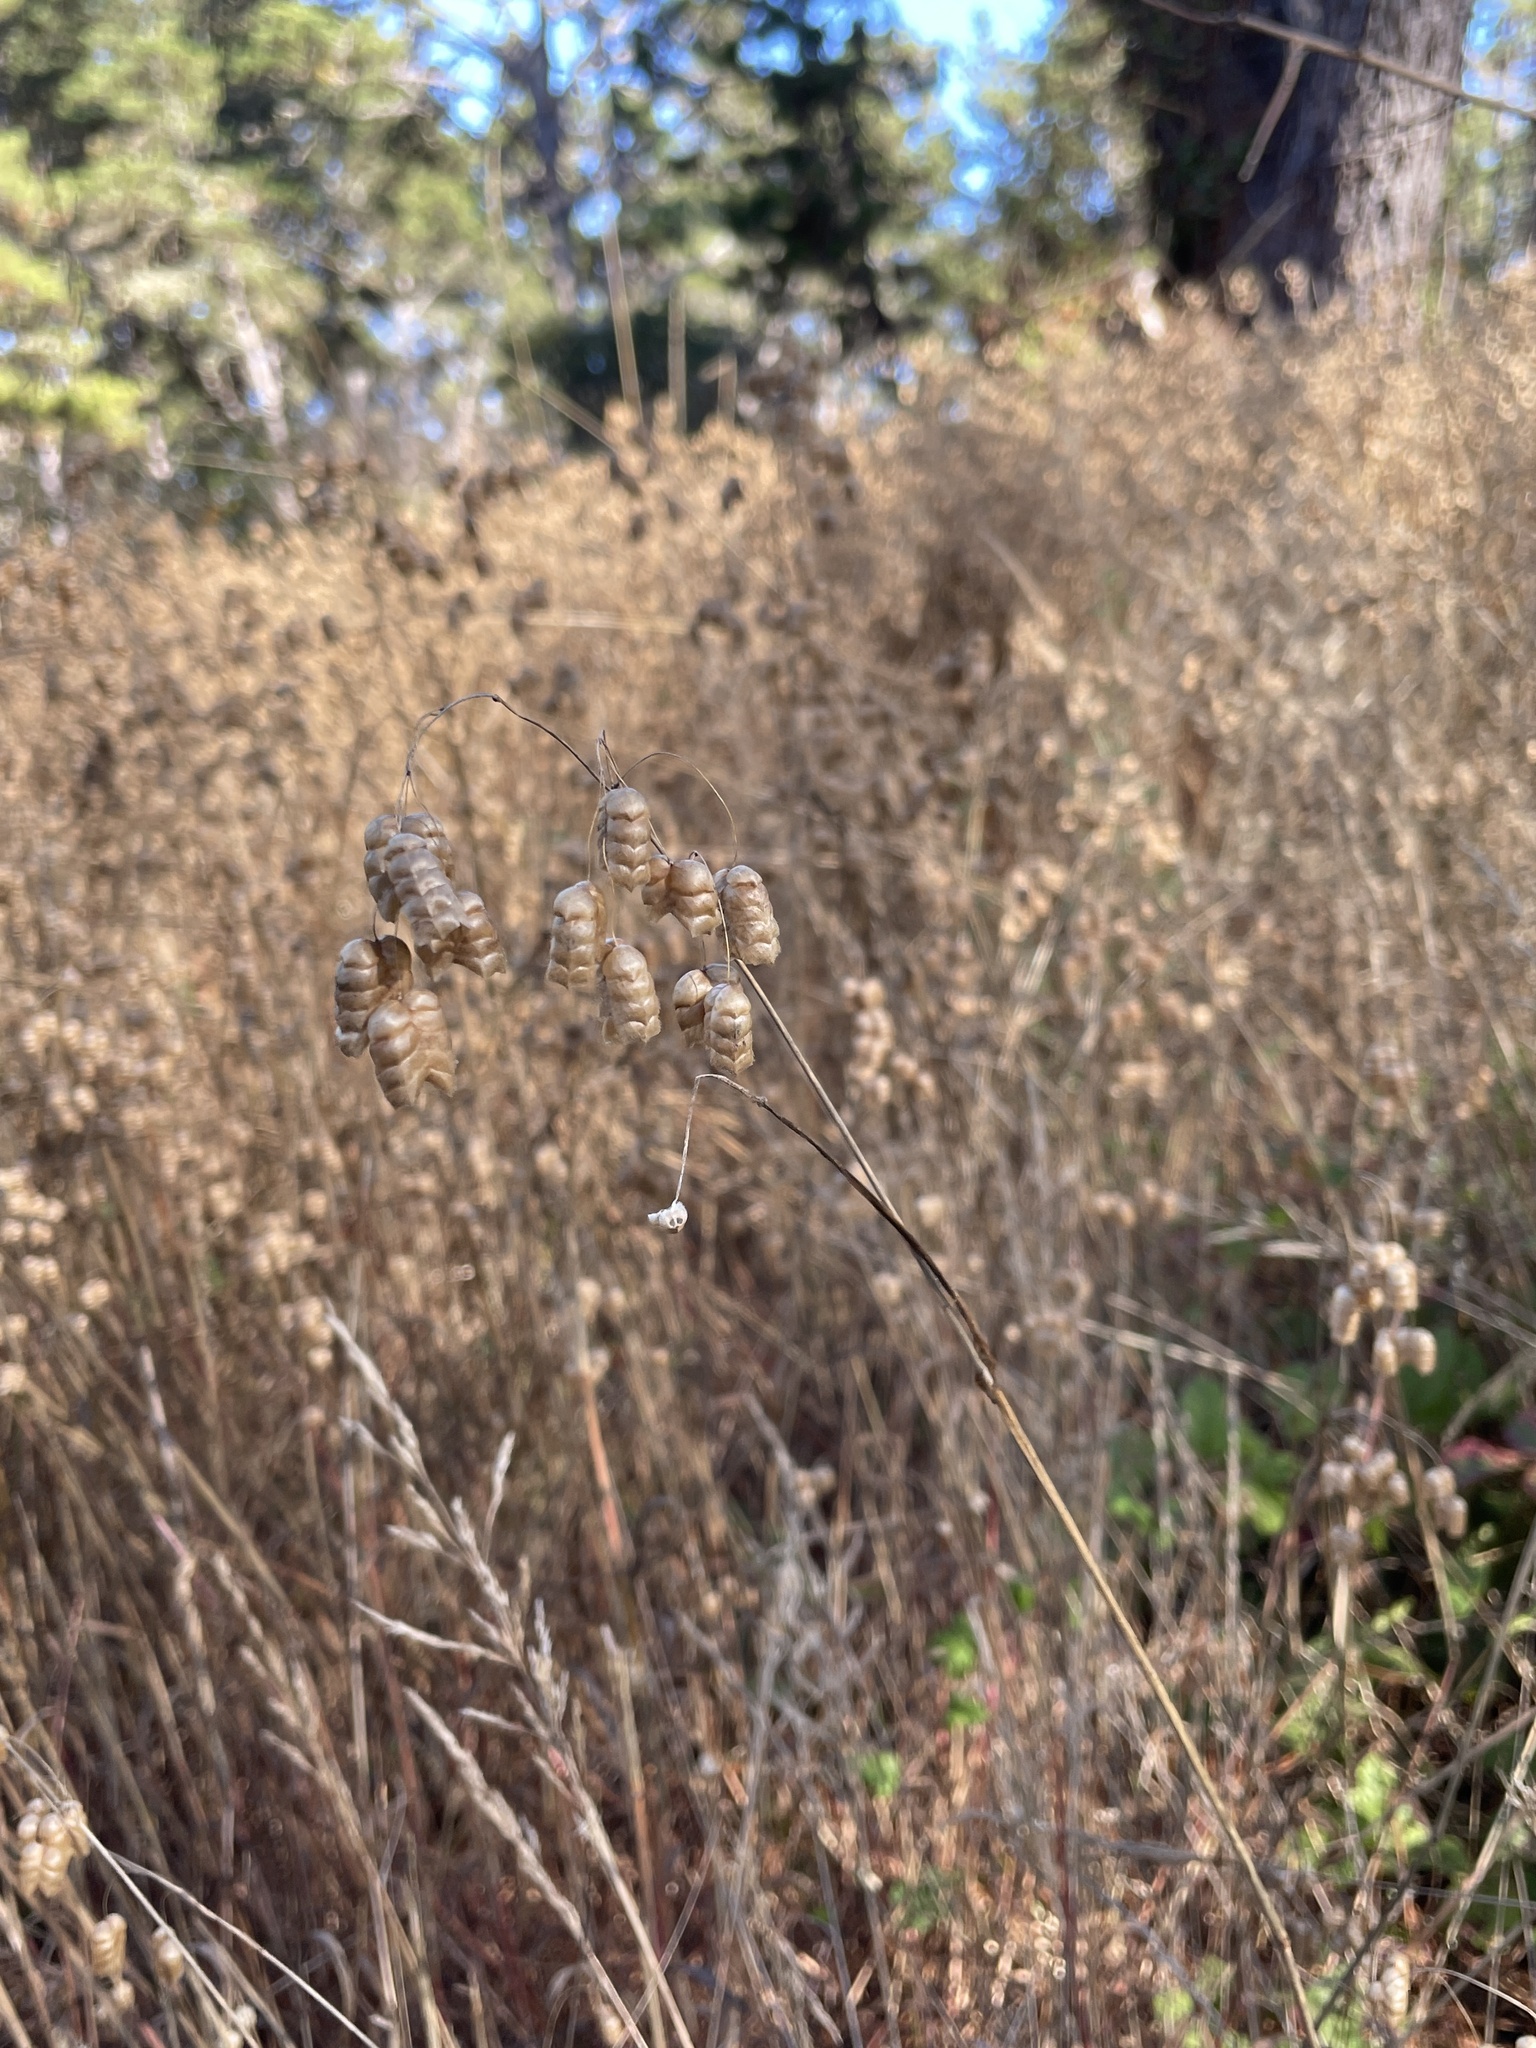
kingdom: Plantae
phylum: Tracheophyta
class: Liliopsida
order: Poales
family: Poaceae
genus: Briza
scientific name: Briza maxima
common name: Big quakinggrass
